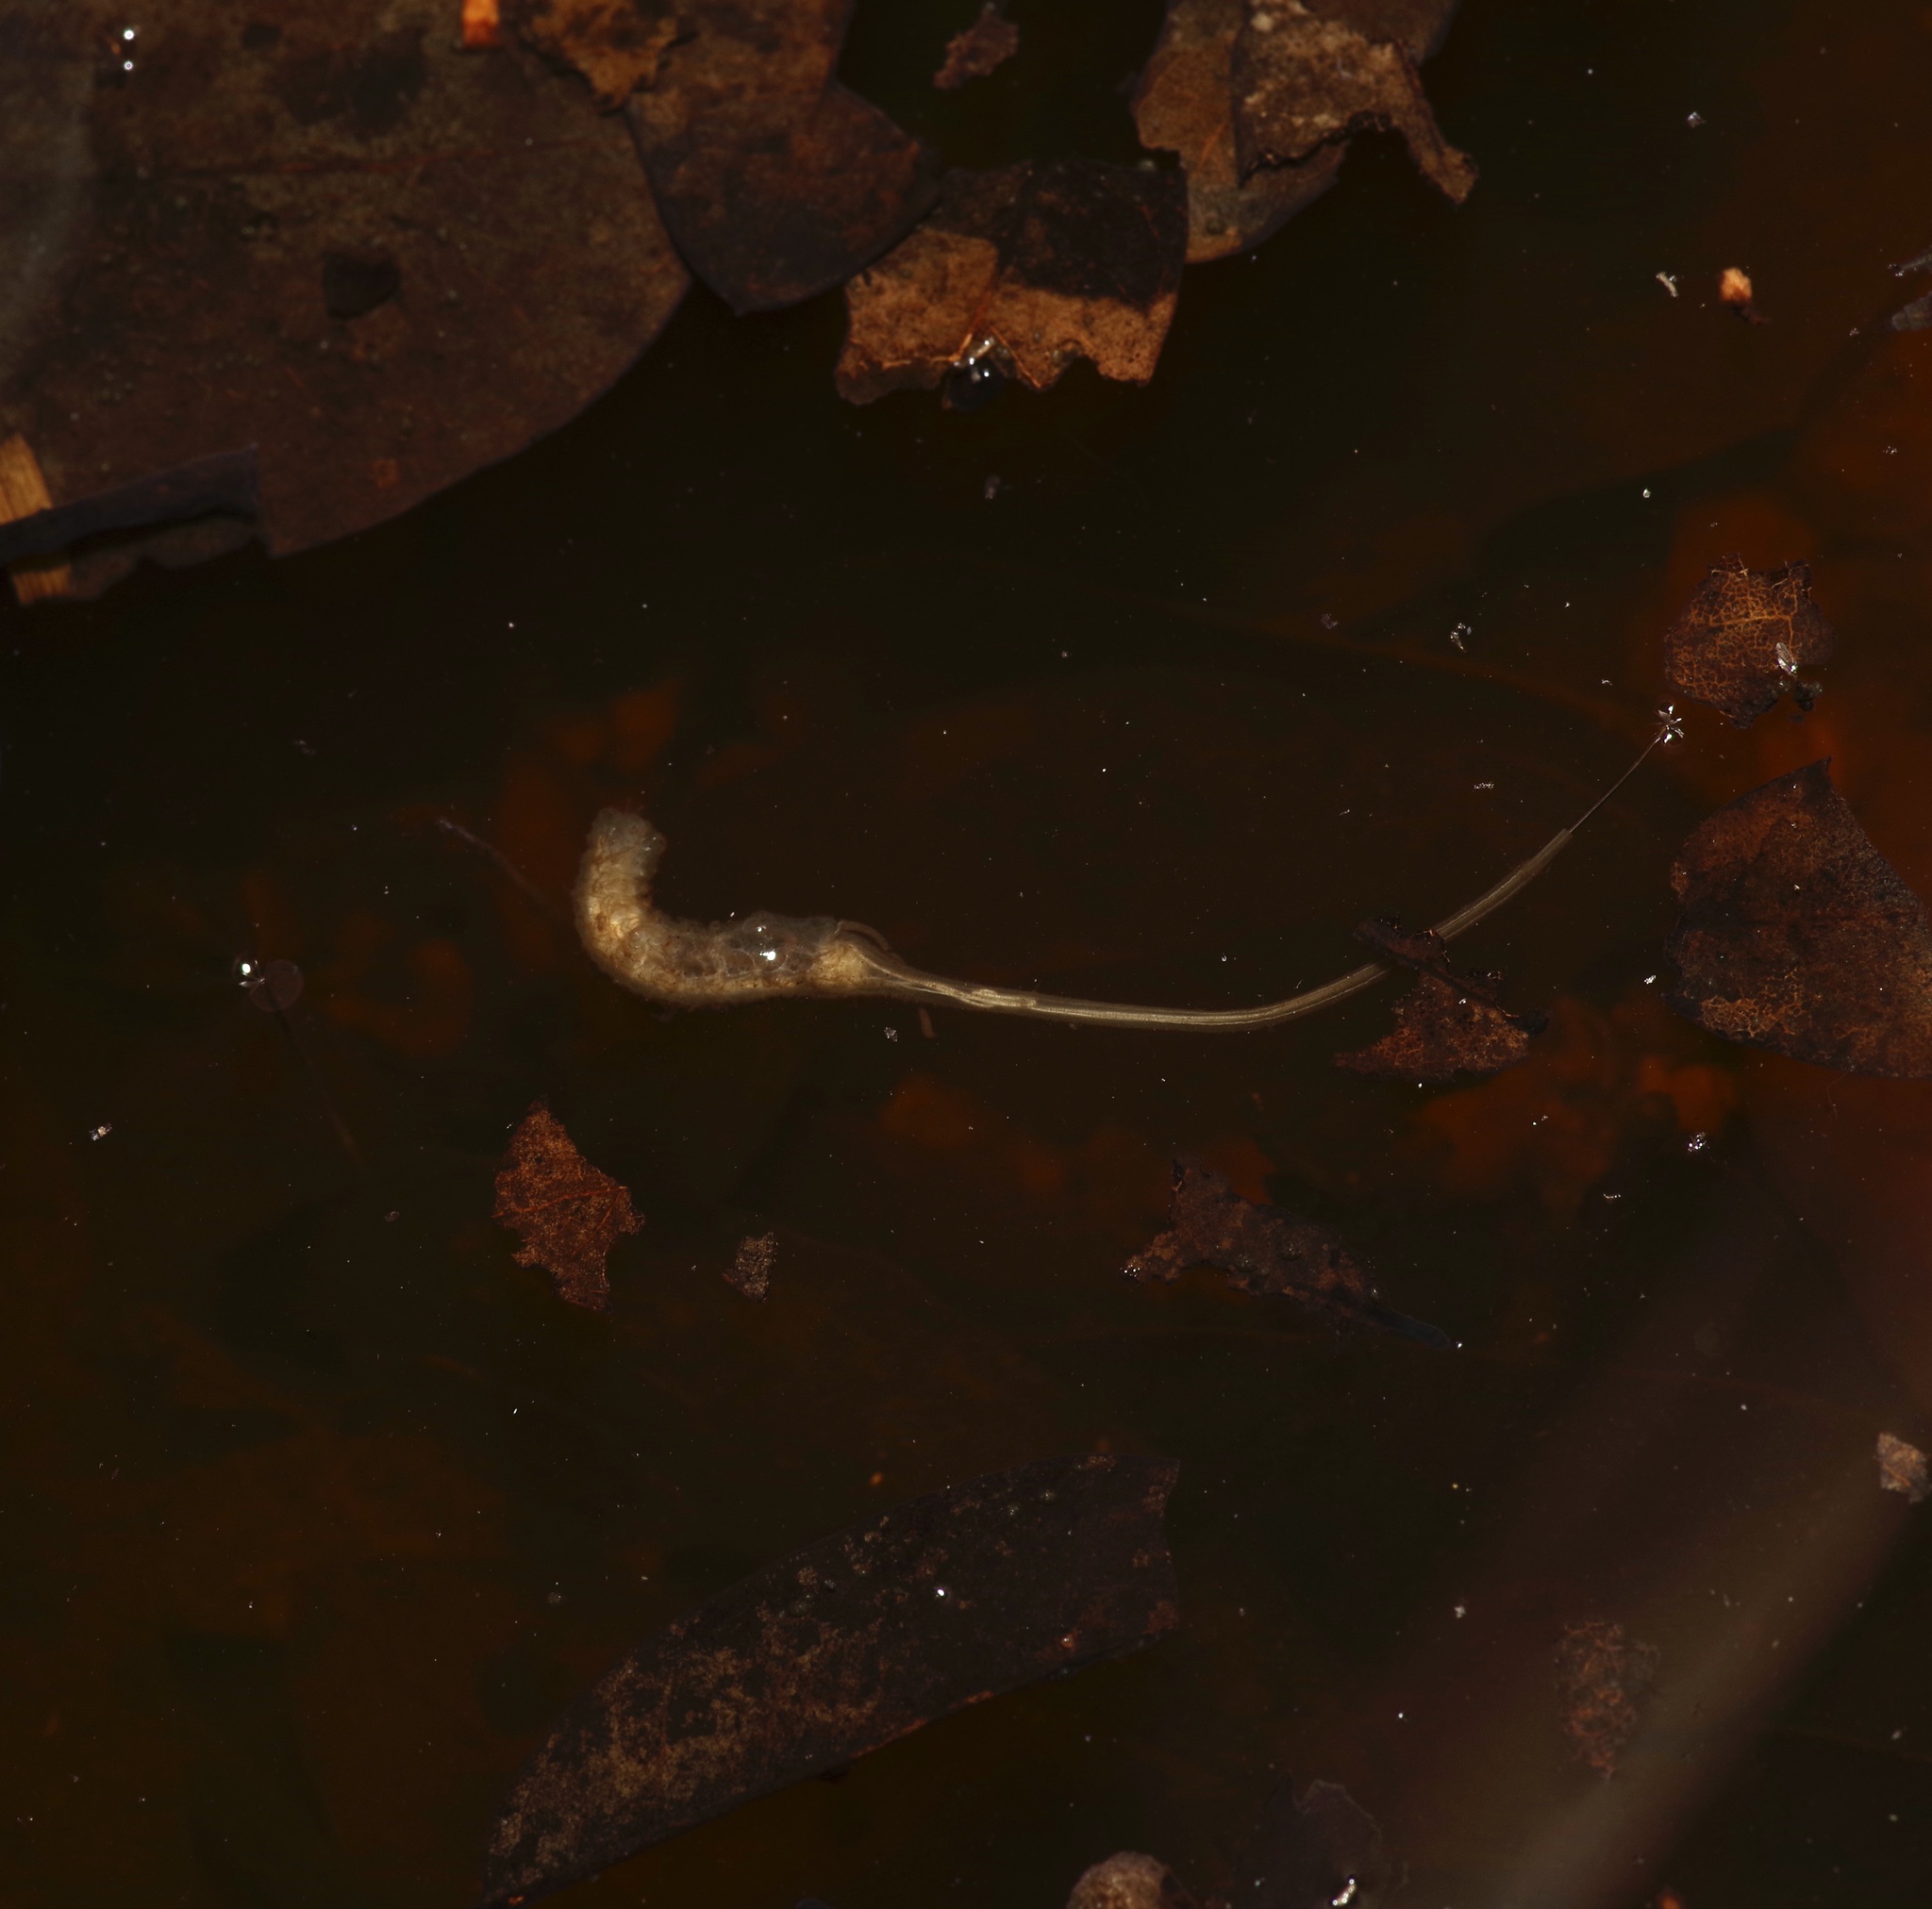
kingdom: Animalia
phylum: Arthropoda
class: Insecta
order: Diptera
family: Syrphidae
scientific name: Syrphidae
